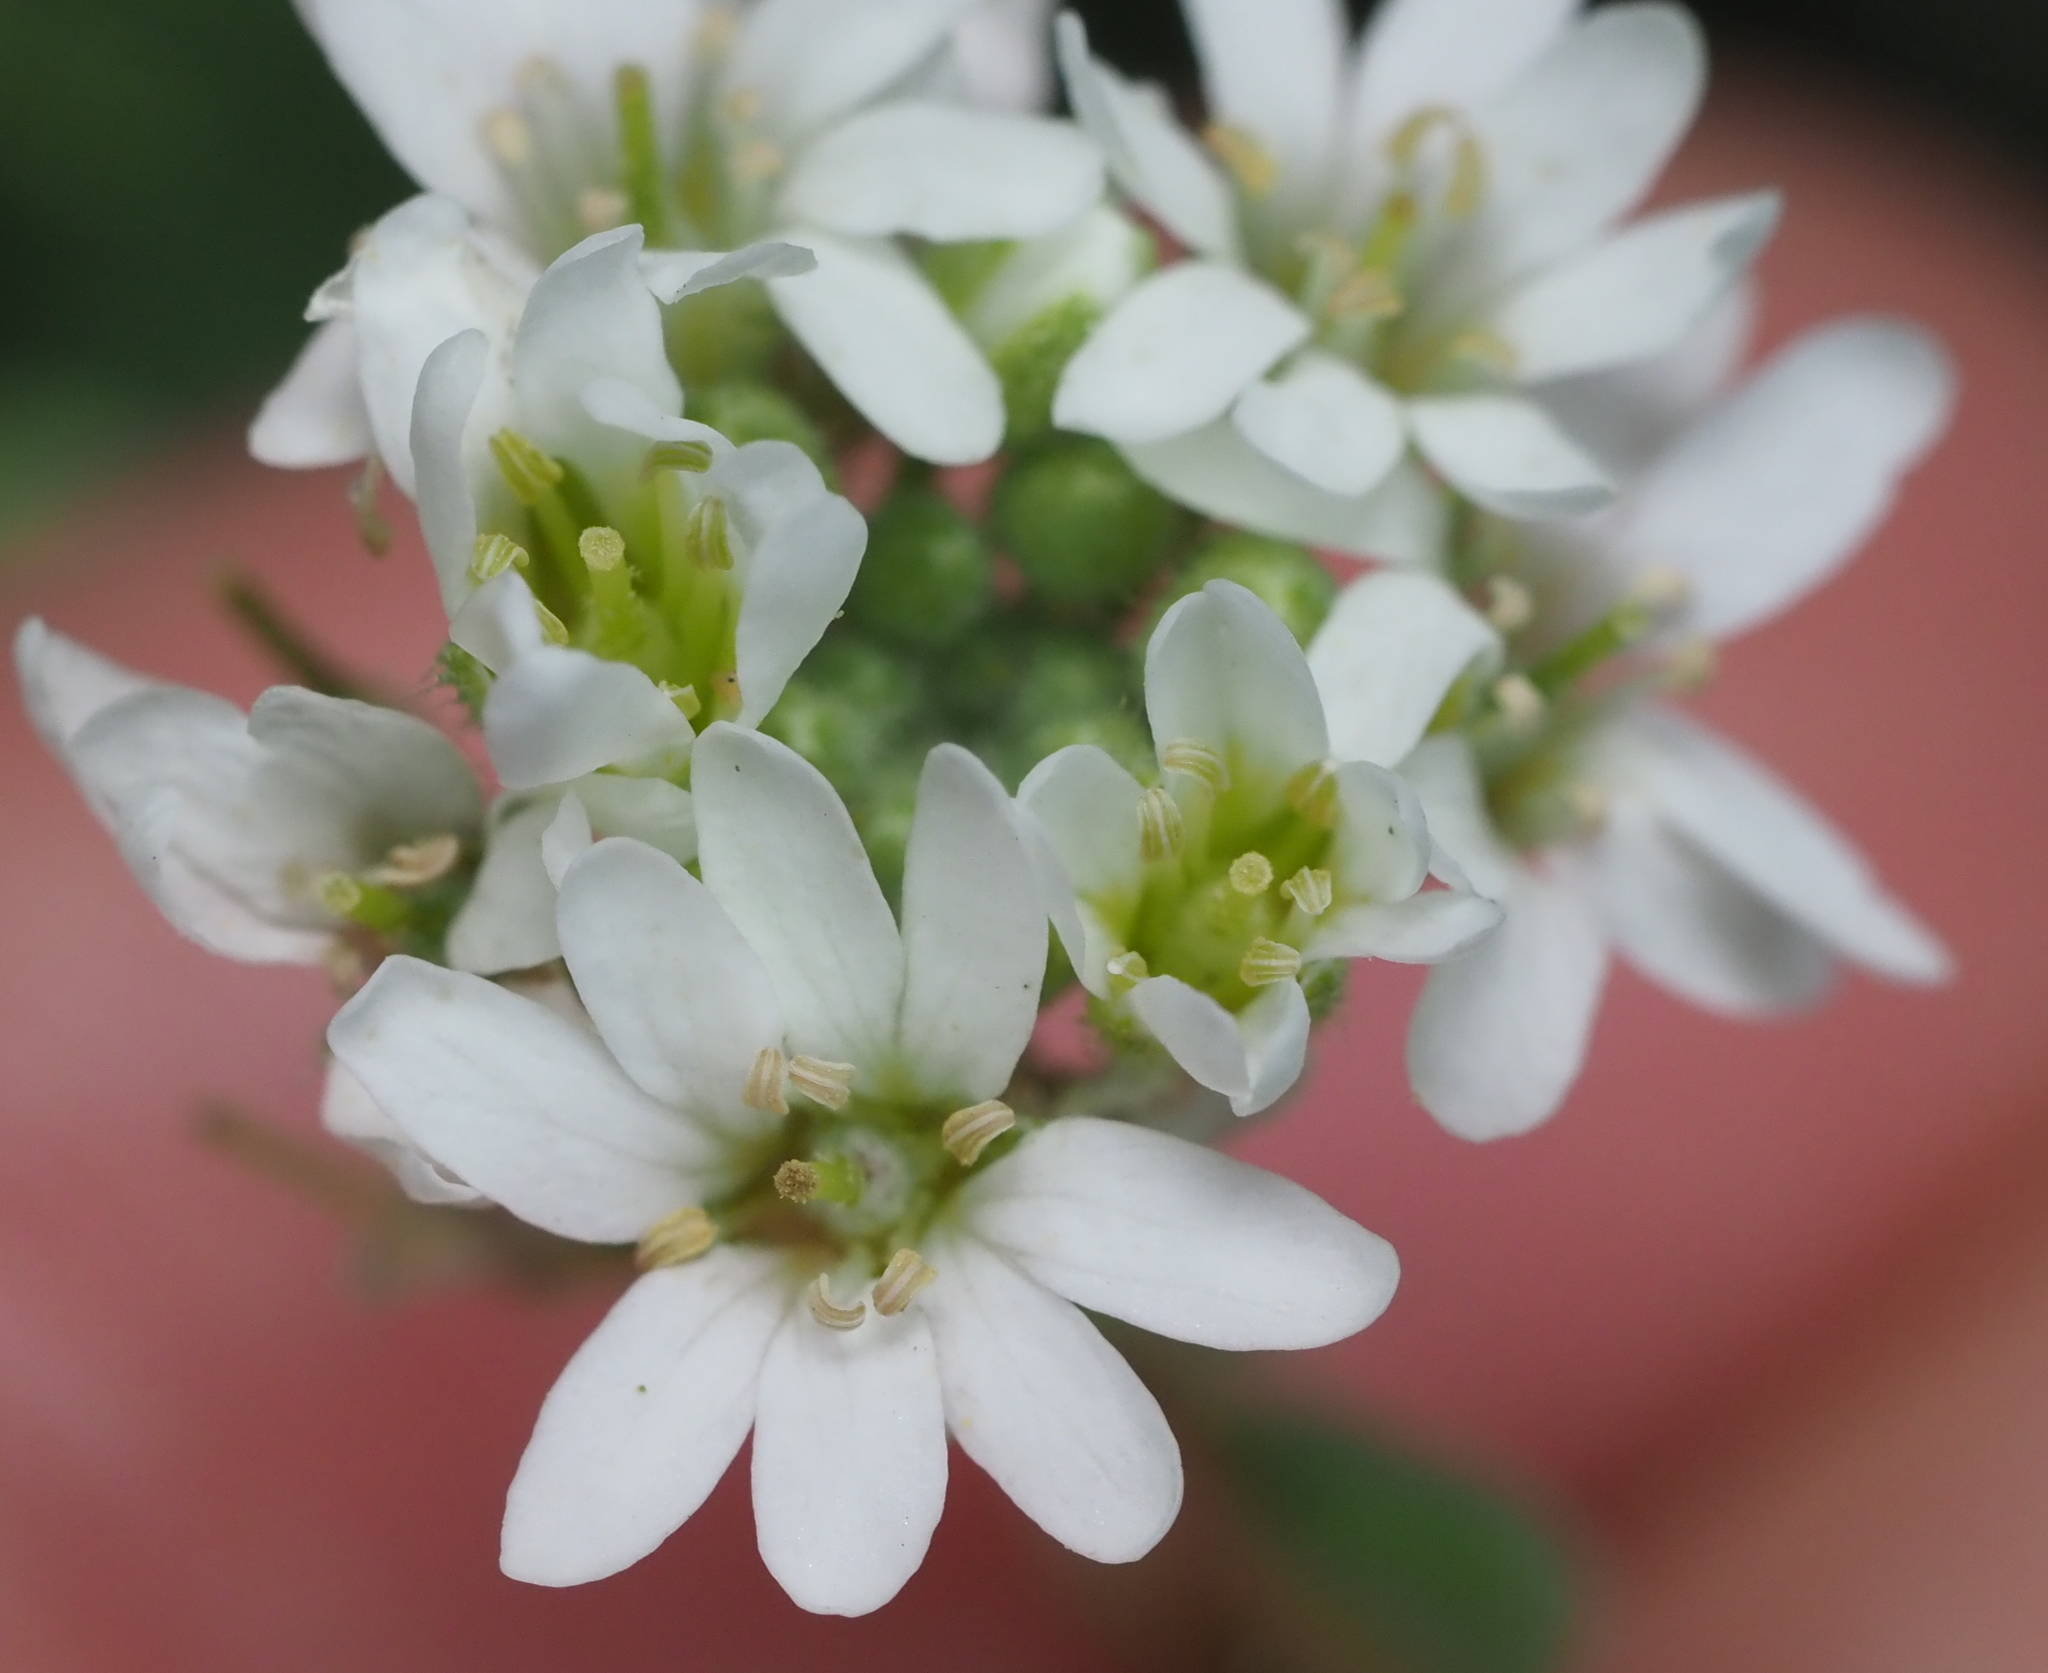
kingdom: Plantae
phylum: Tracheophyta
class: Magnoliopsida
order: Brassicales
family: Brassicaceae
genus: Berteroa
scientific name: Berteroa incana
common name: Hoary alison
